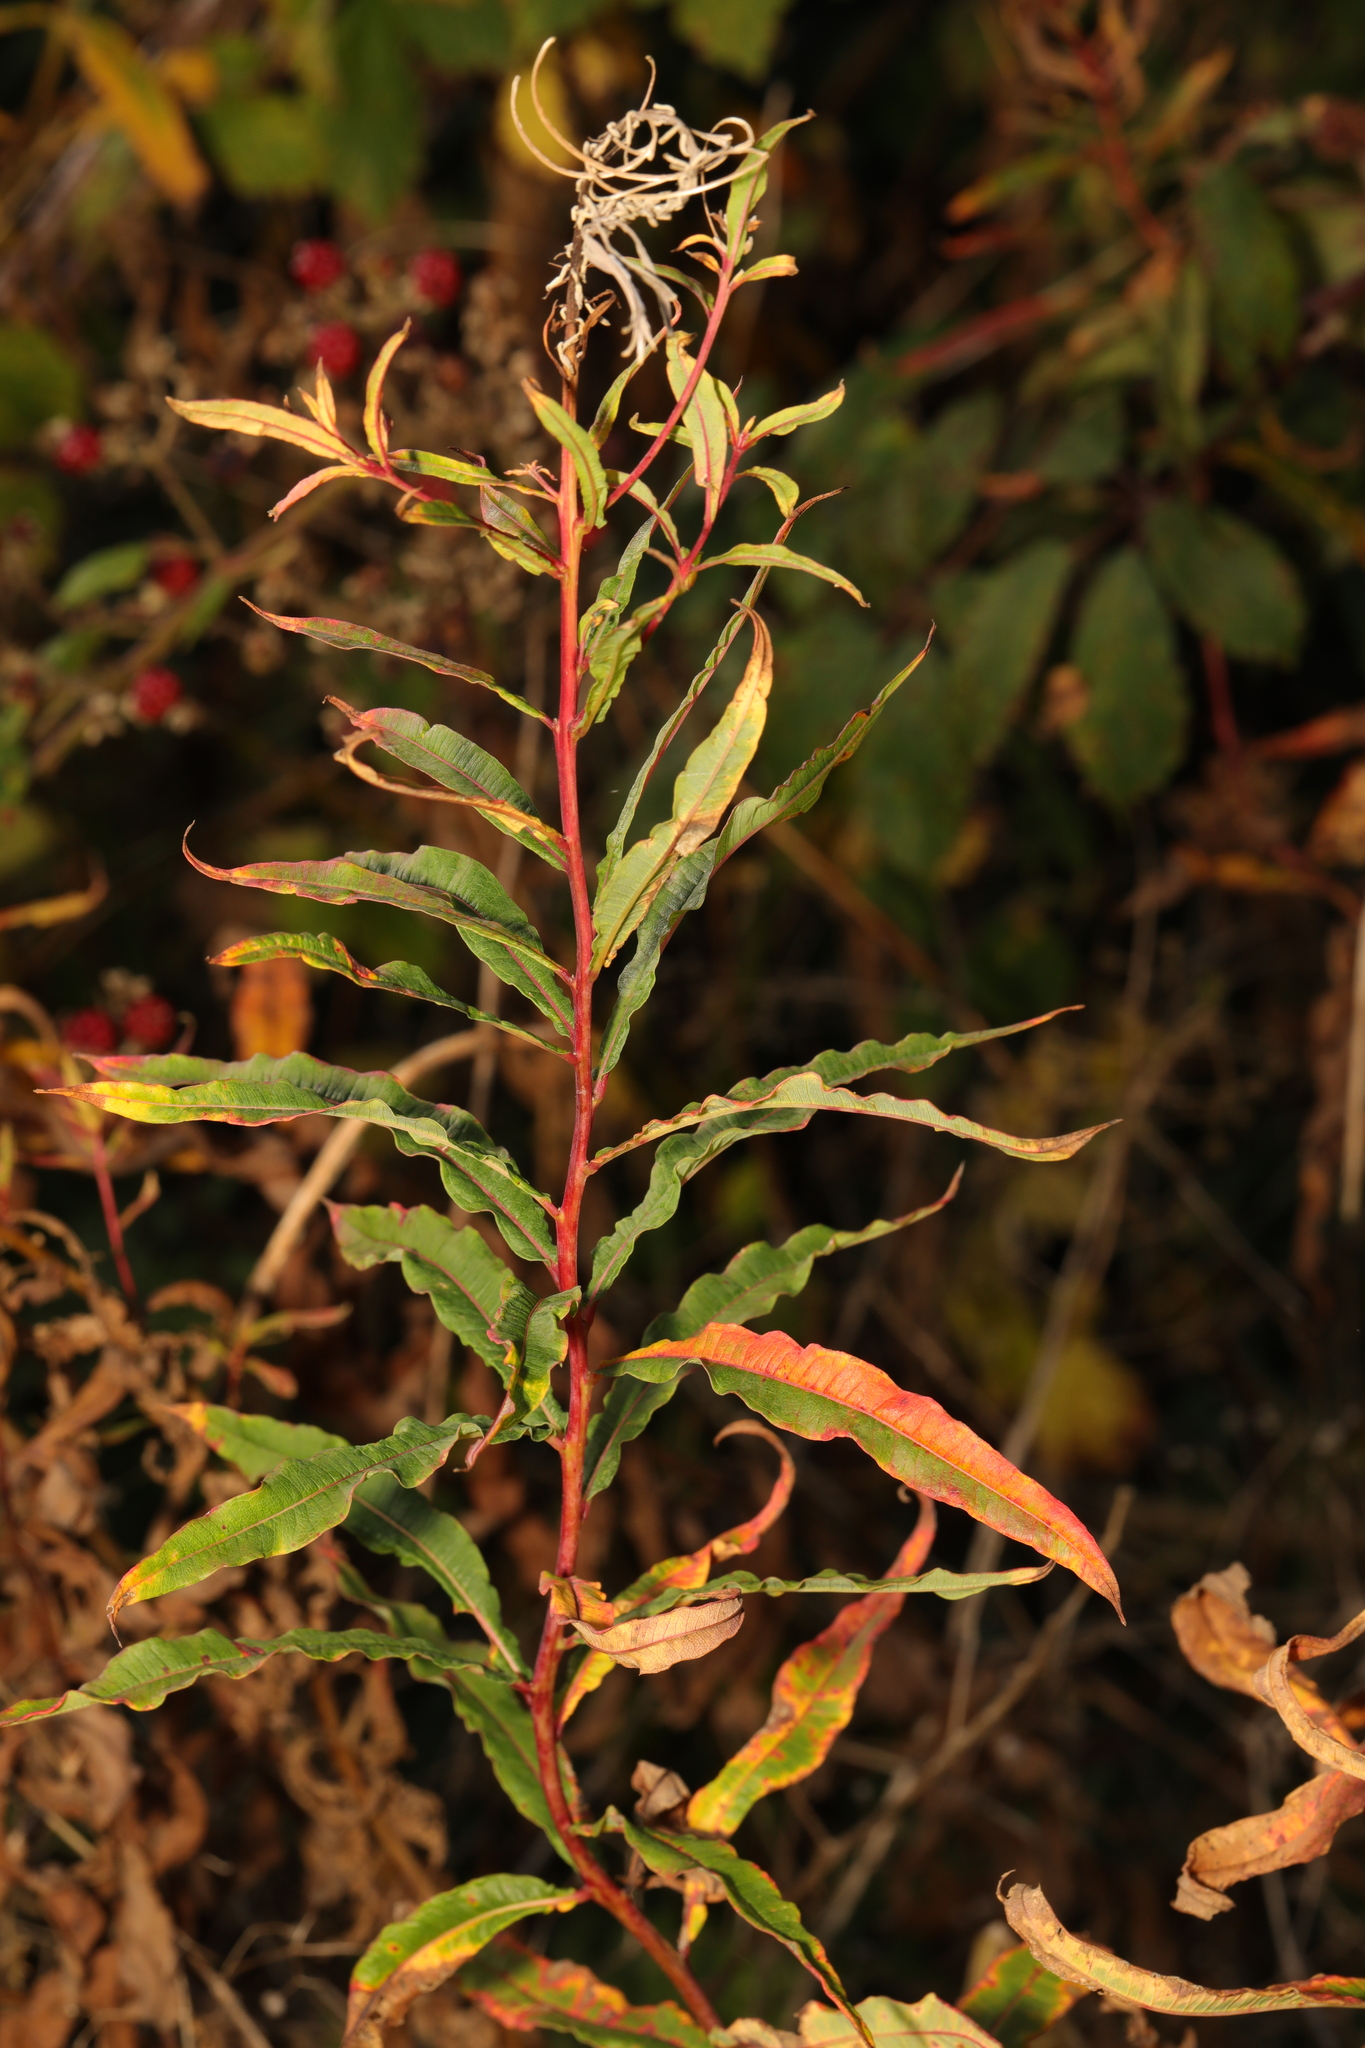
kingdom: Plantae
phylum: Tracheophyta
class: Magnoliopsida
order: Myrtales
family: Onagraceae
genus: Chamaenerion
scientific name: Chamaenerion angustifolium
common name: Fireweed
